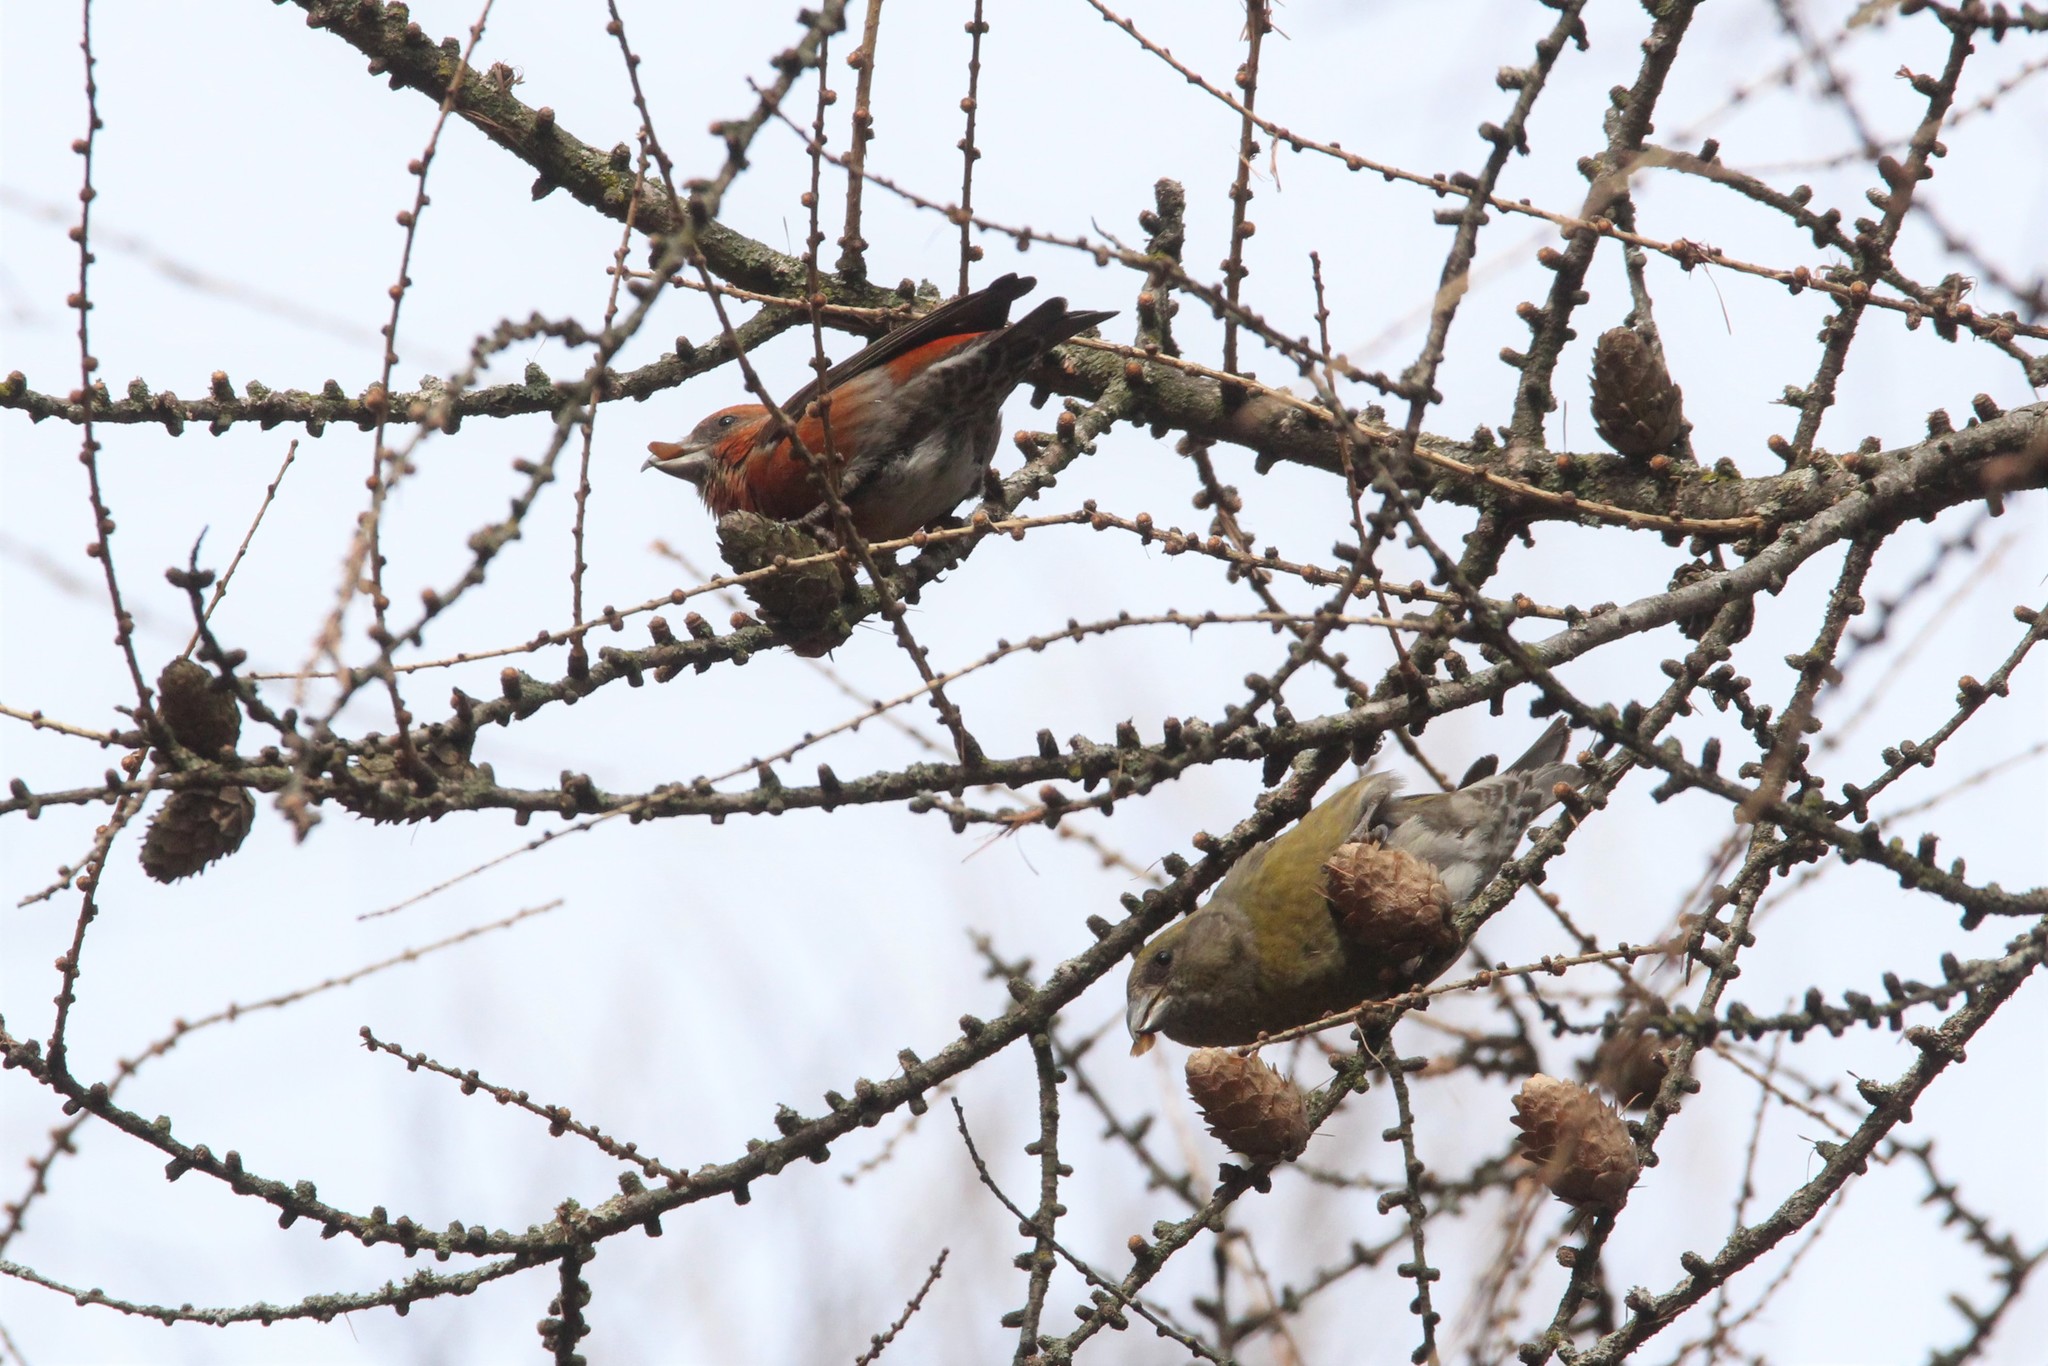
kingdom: Animalia
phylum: Chordata
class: Aves
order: Passeriformes
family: Fringillidae
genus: Loxia
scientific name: Loxia curvirostra
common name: Red crossbill
